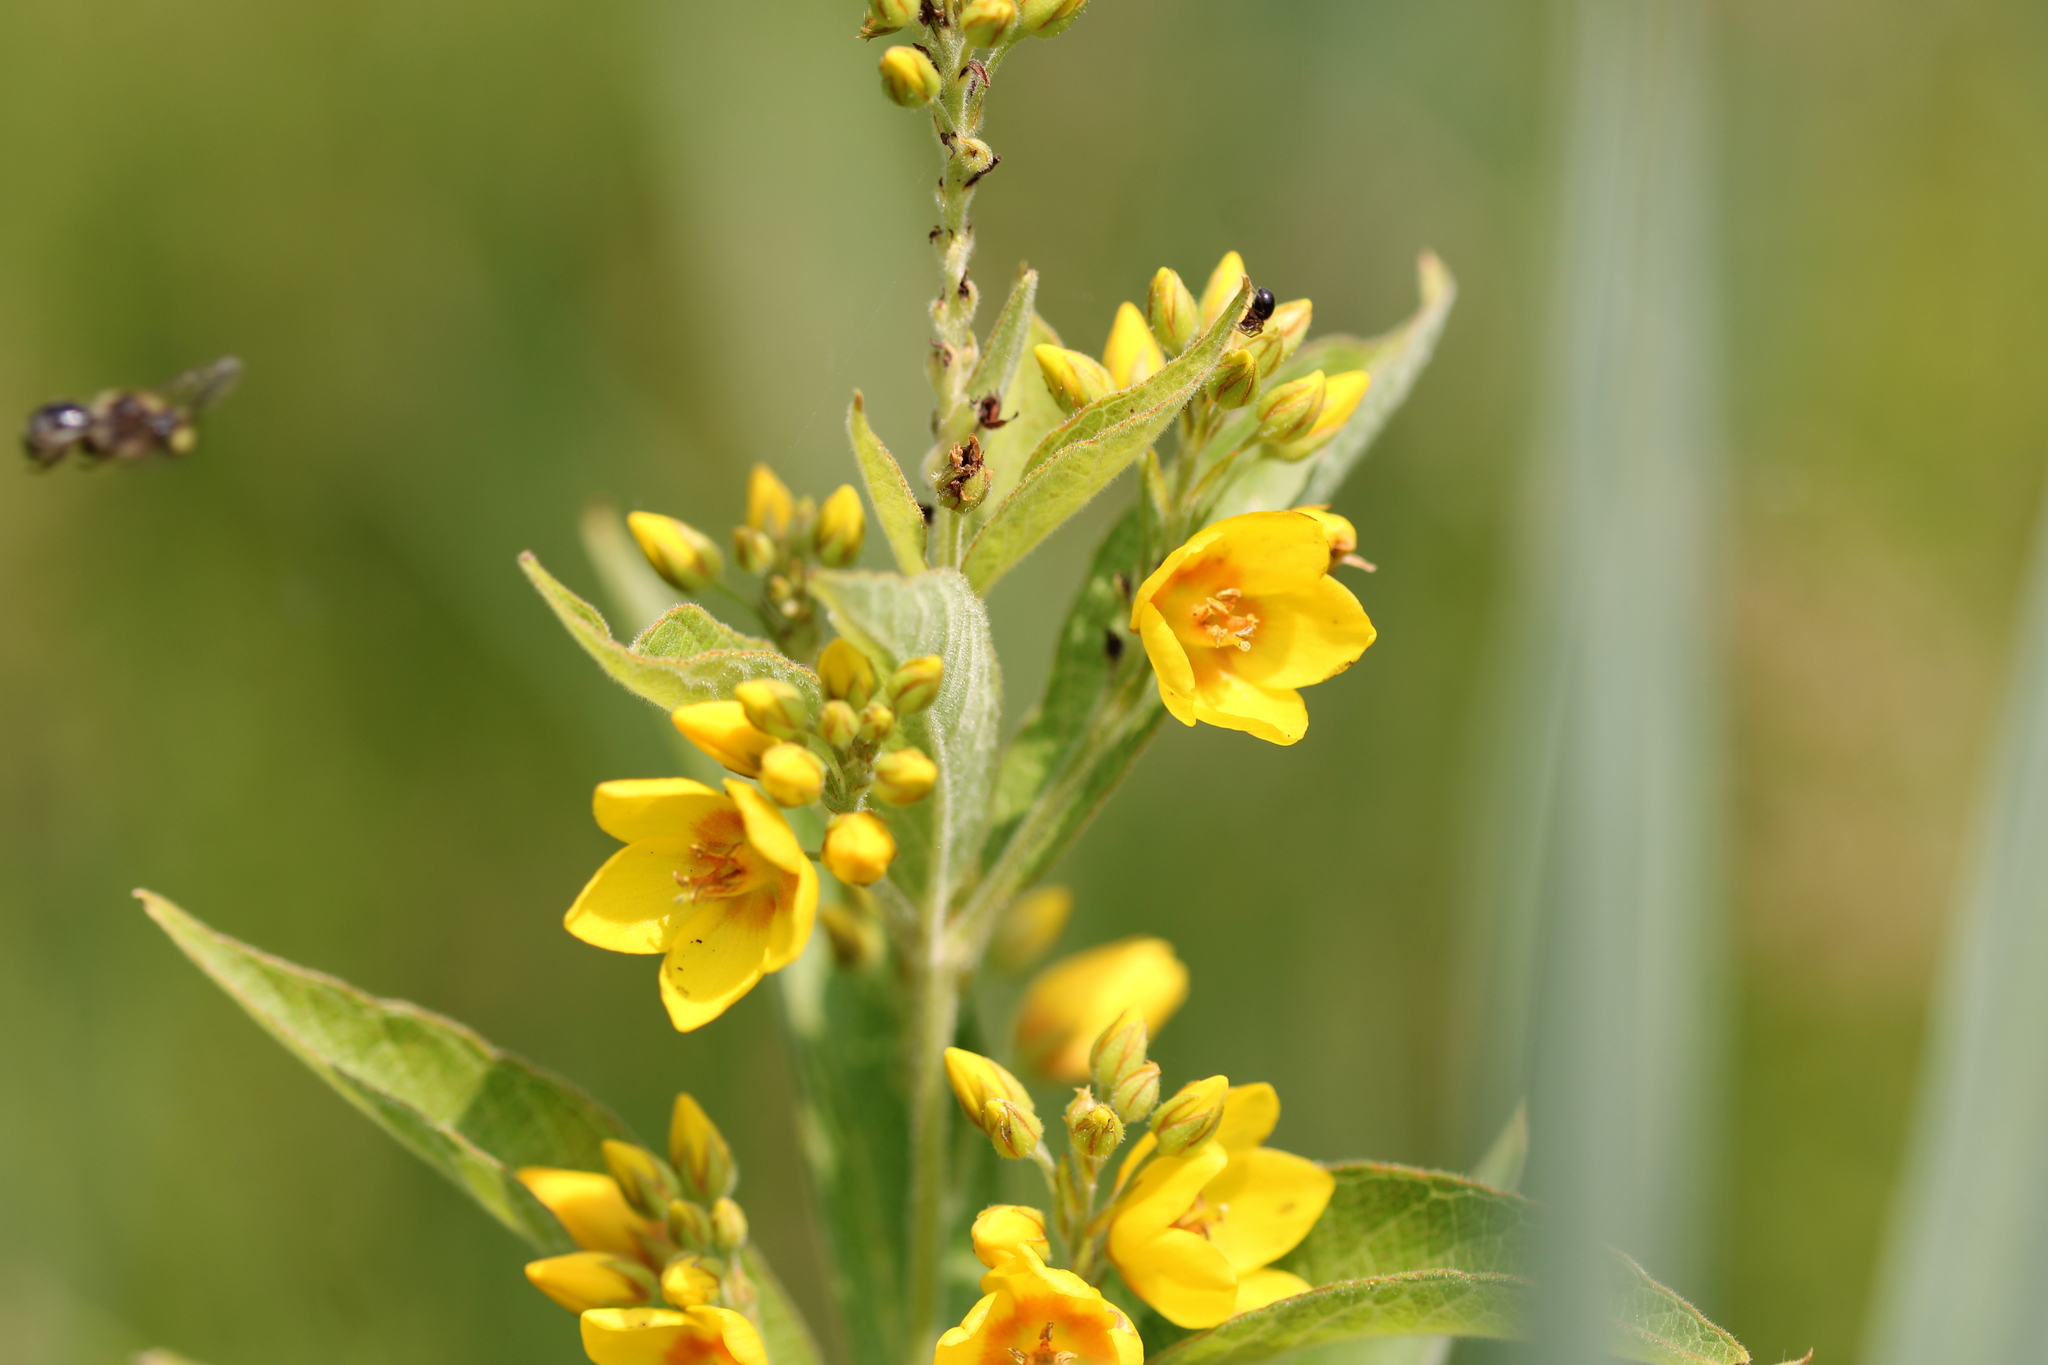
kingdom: Plantae
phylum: Tracheophyta
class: Magnoliopsida
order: Ericales
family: Primulaceae
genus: Lysimachia
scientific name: Lysimachia vulgaris
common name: Yellow loosestrife
